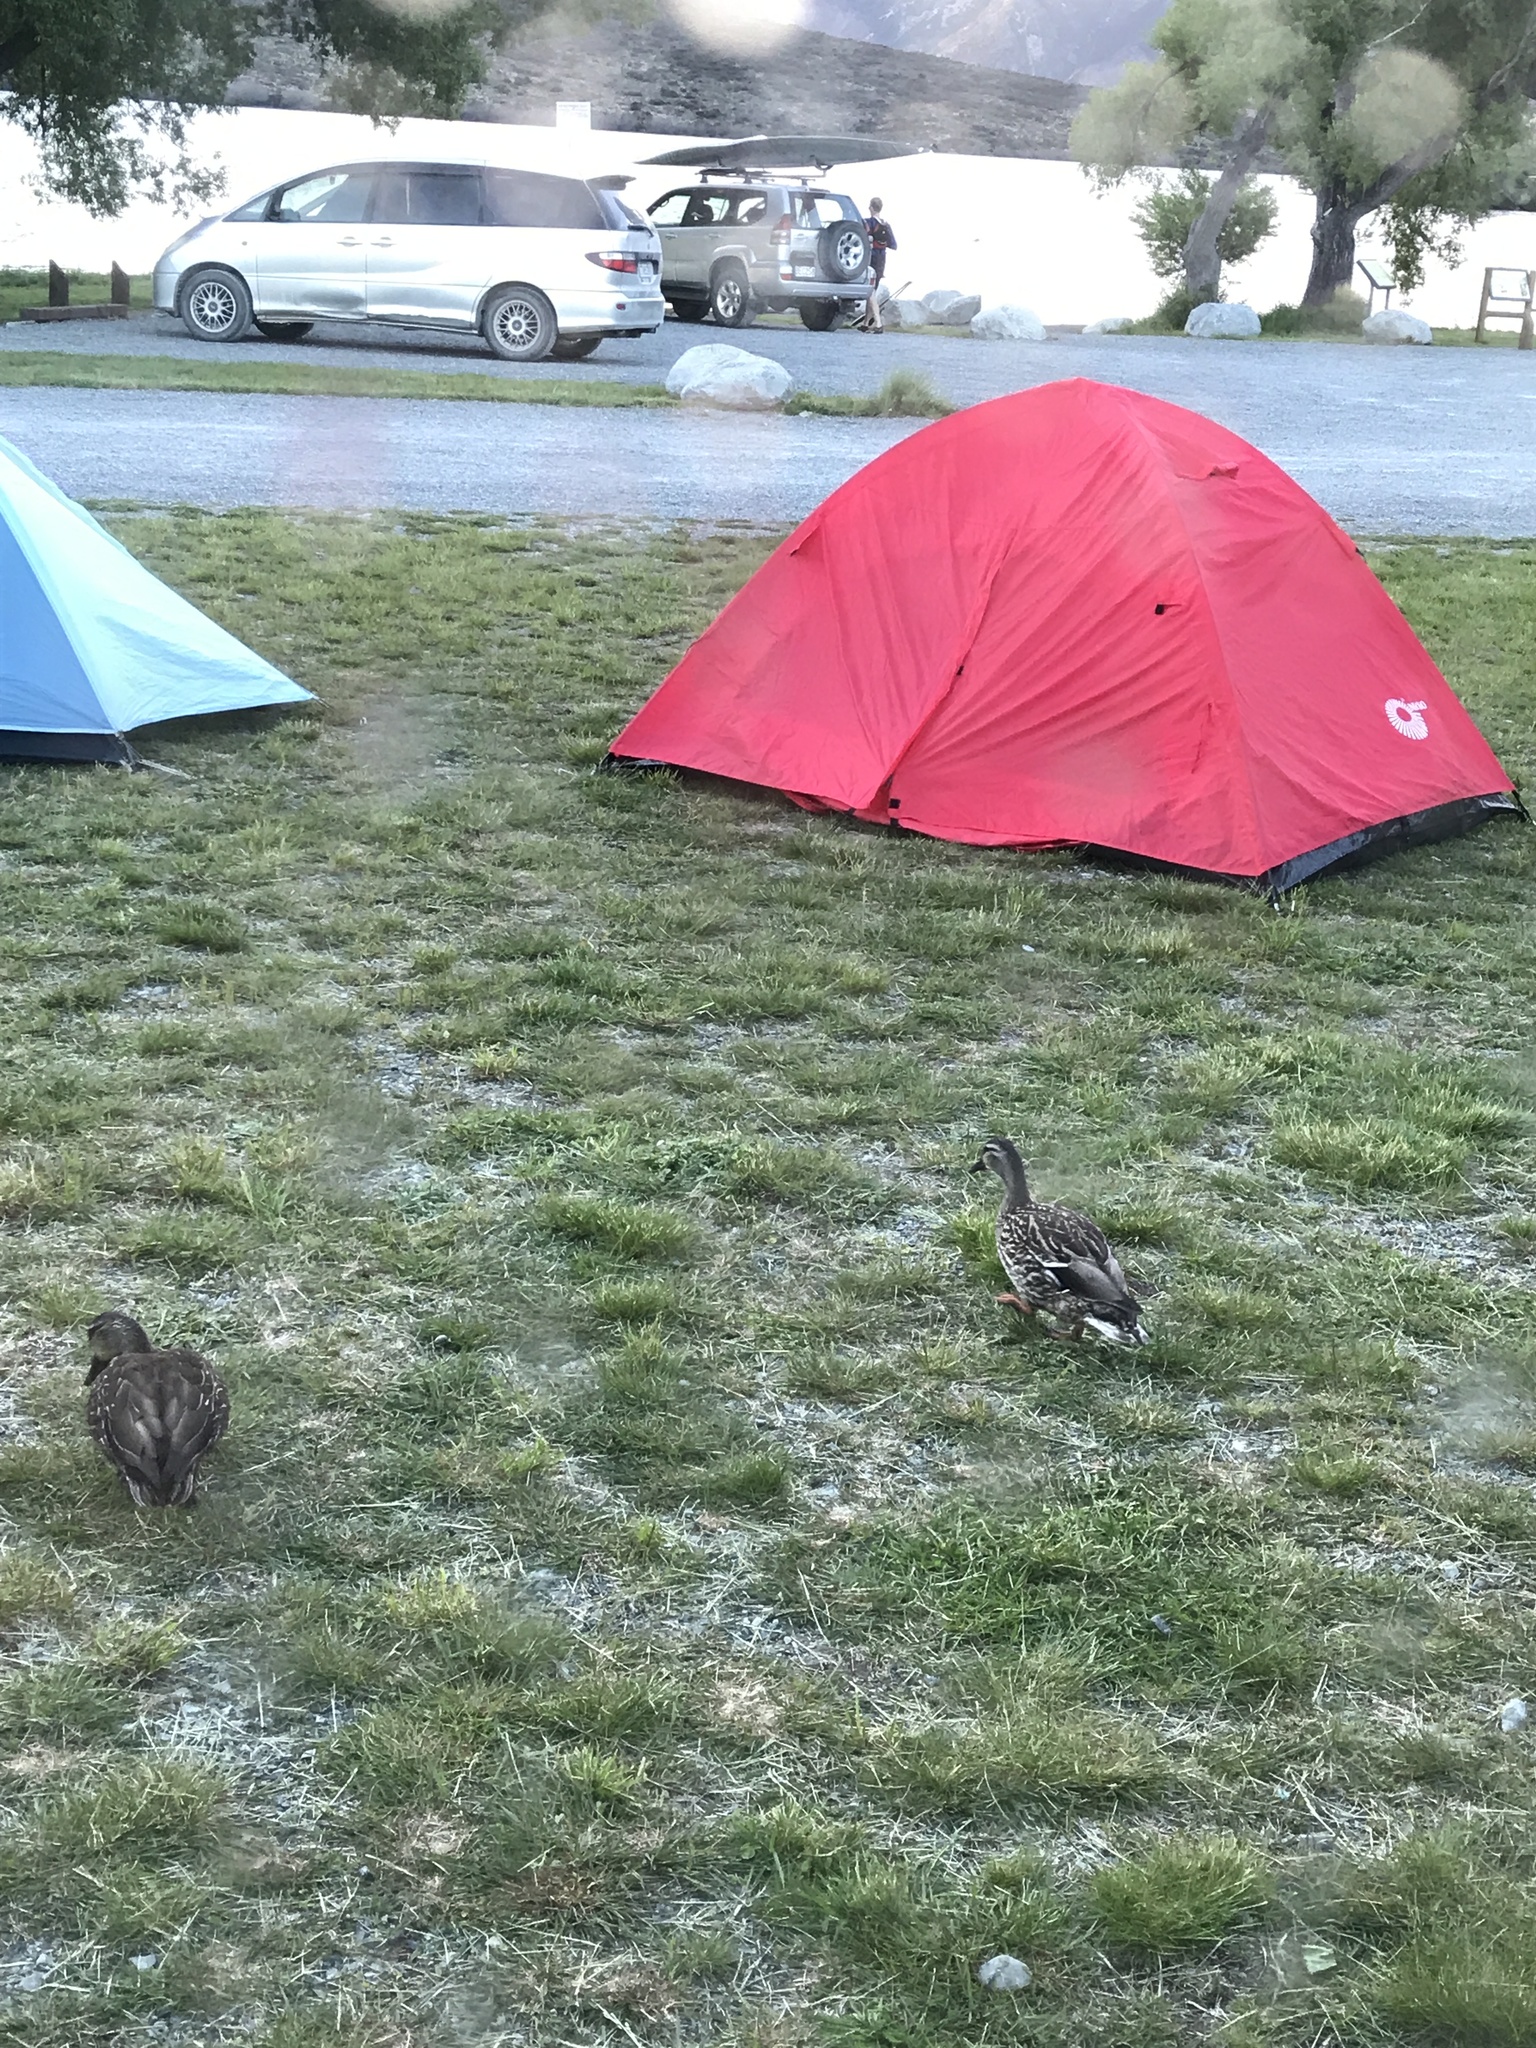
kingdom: Animalia
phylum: Chordata
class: Aves
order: Anseriformes
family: Anatidae
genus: Anas
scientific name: Anas
